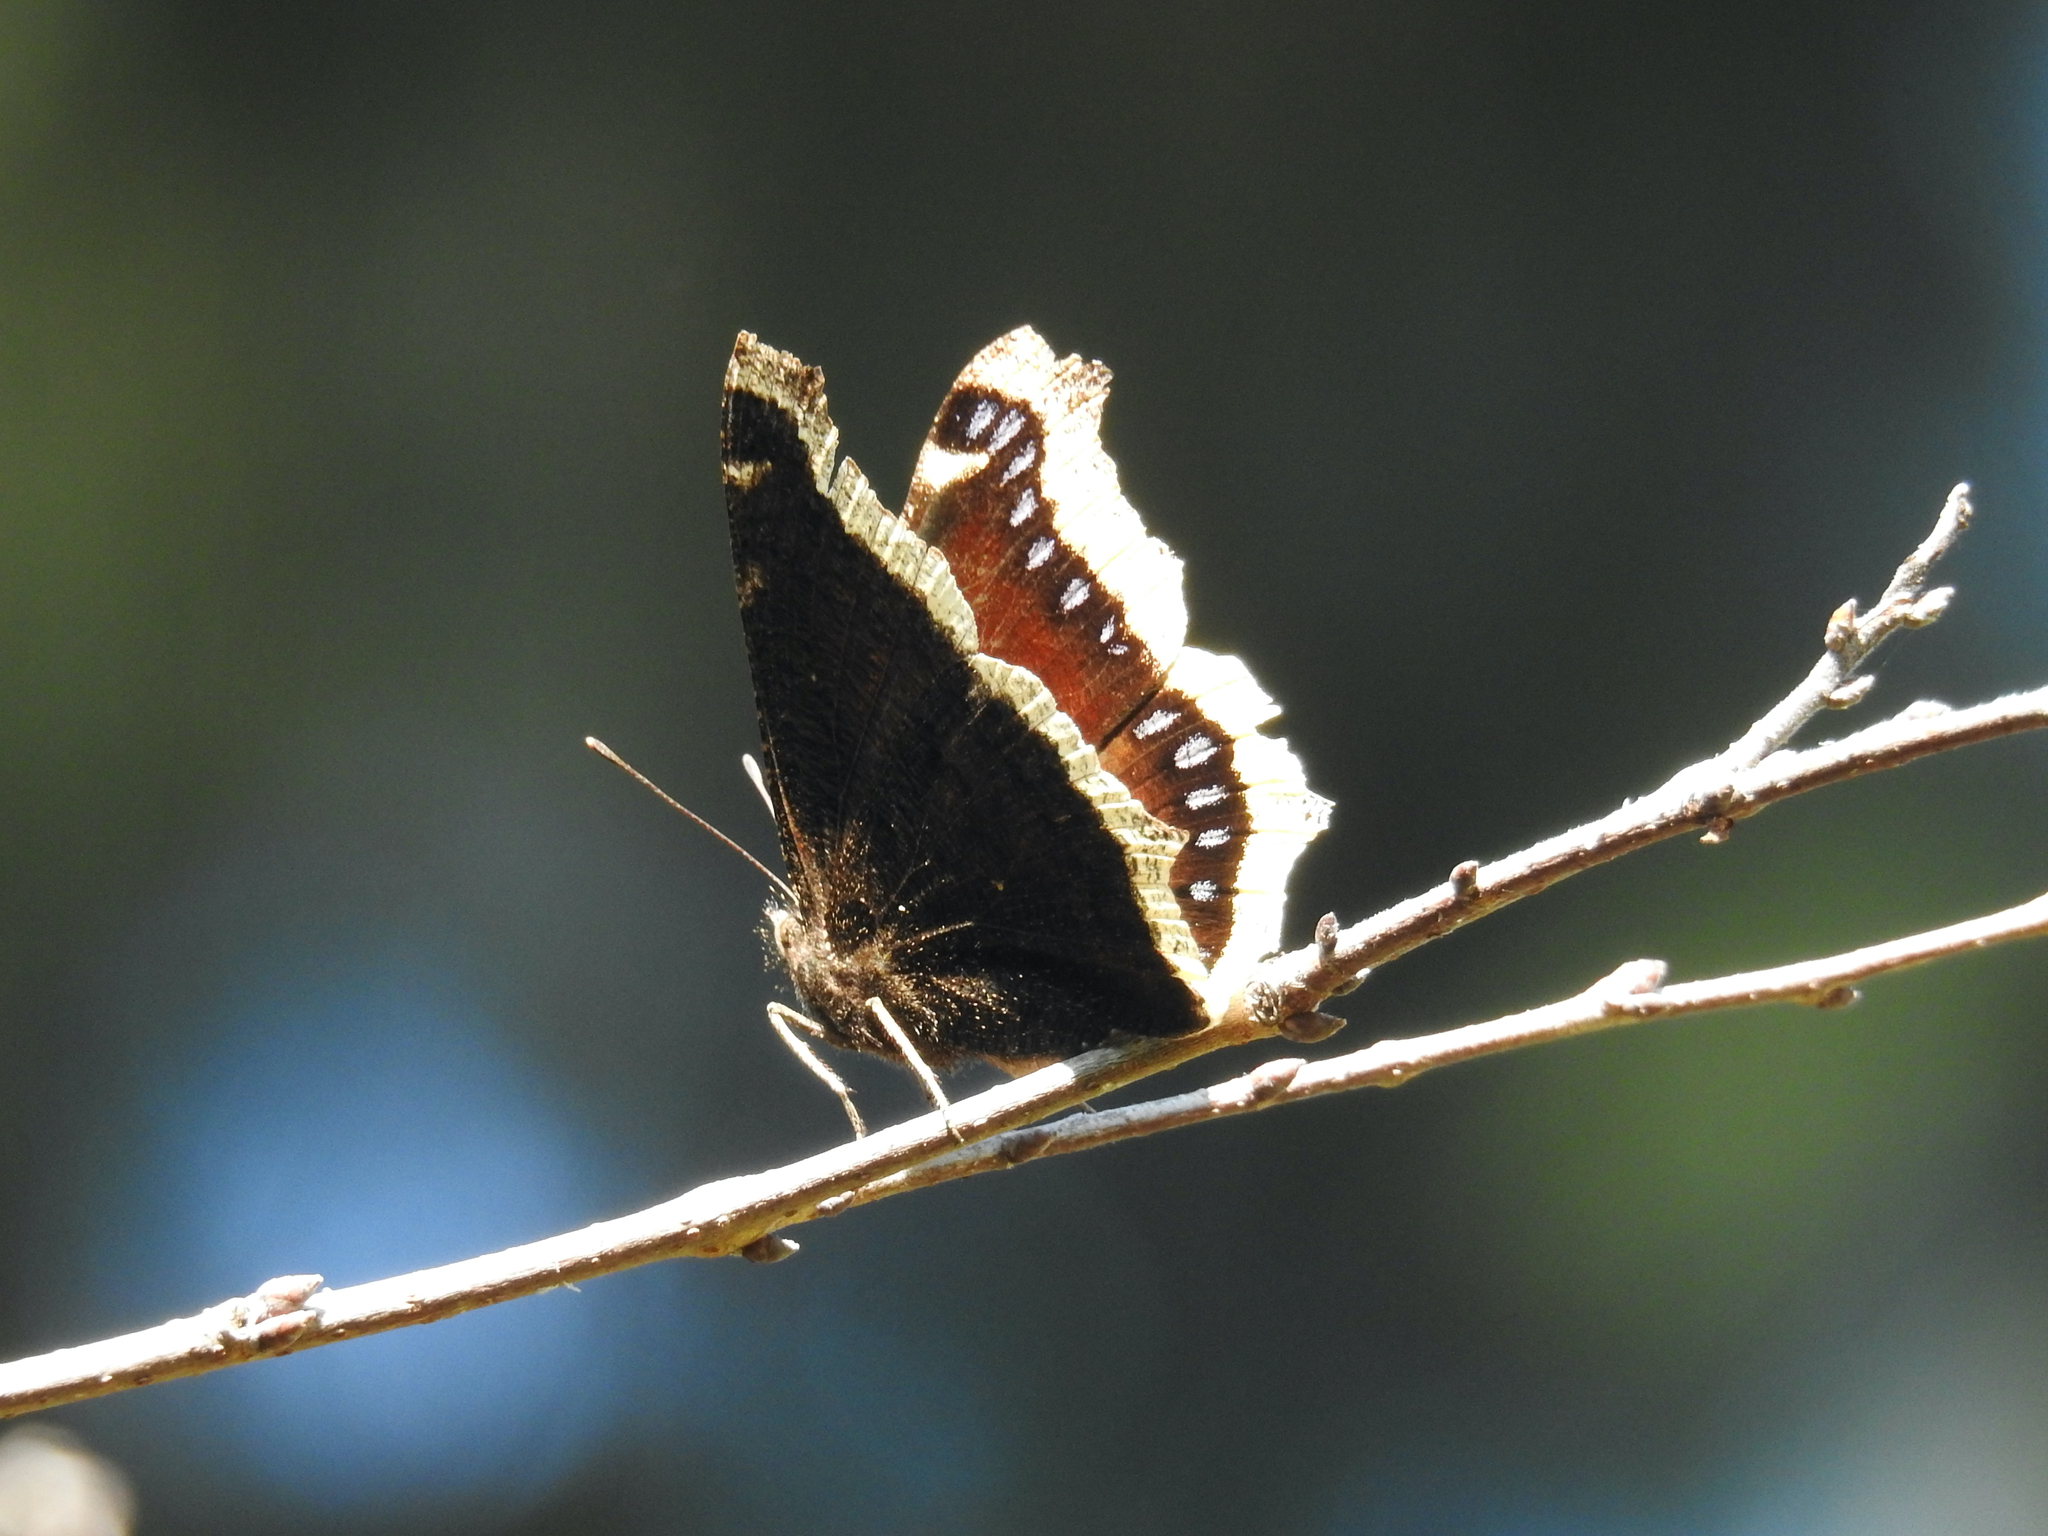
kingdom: Animalia
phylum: Arthropoda
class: Insecta
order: Lepidoptera
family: Nymphalidae
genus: Nymphalis
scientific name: Nymphalis antiopa
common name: Camberwell beauty
